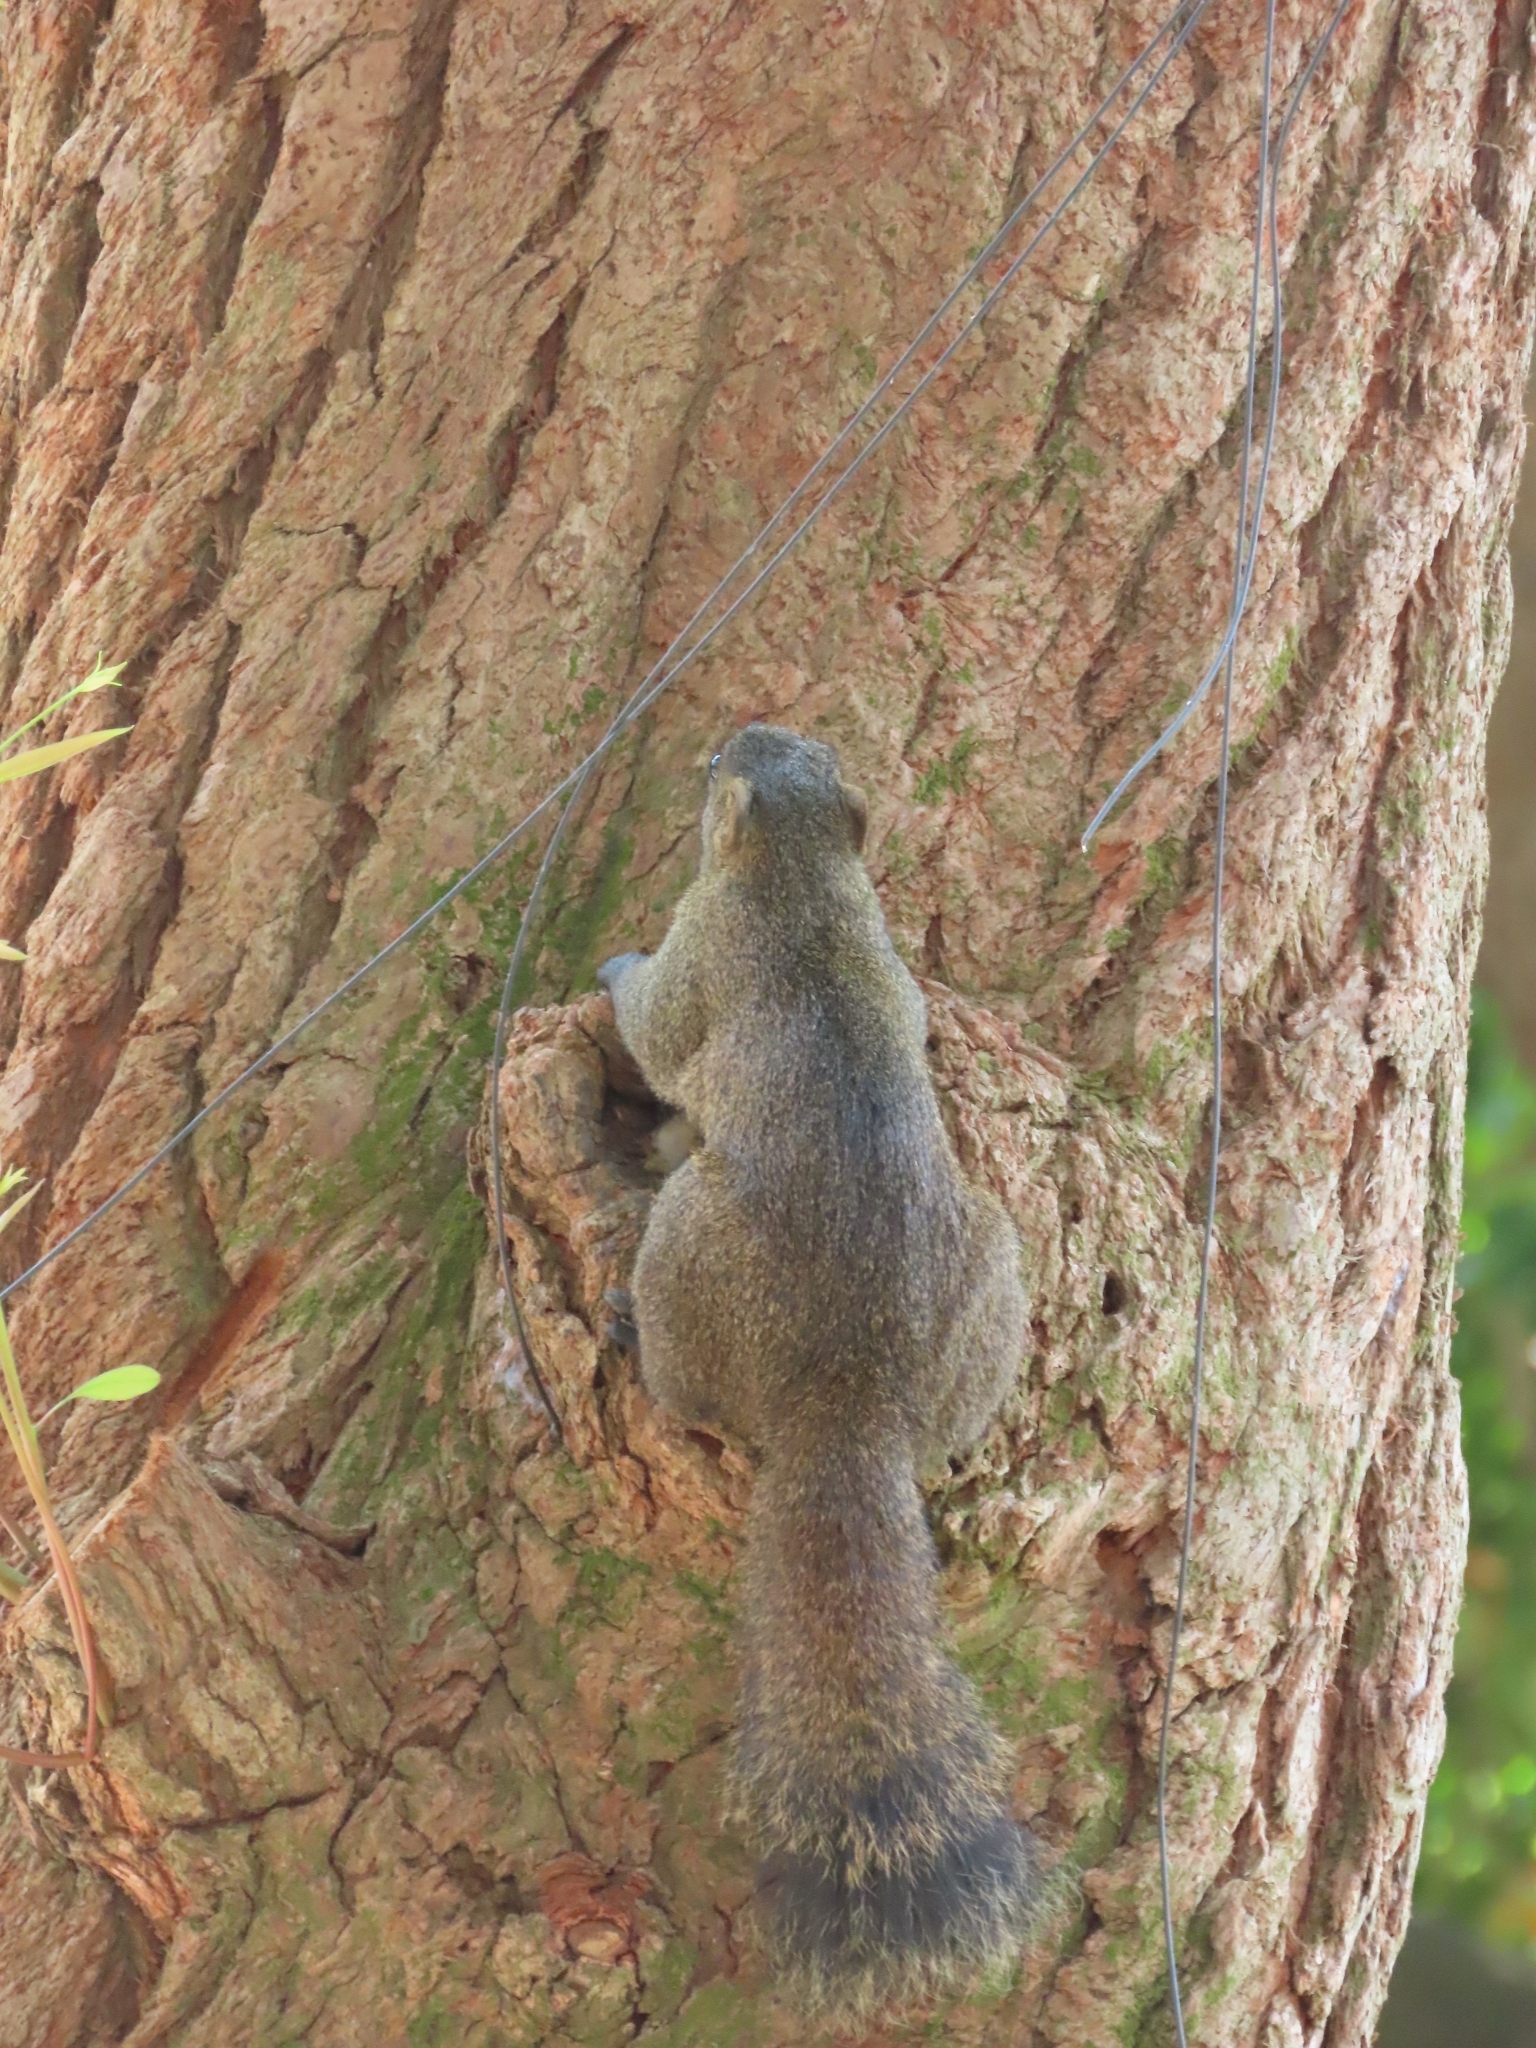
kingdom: Animalia
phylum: Chordata
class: Mammalia
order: Rodentia
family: Sciuridae
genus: Callosciurus
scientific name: Callosciurus erythraeus
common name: Pallas's squirrel
